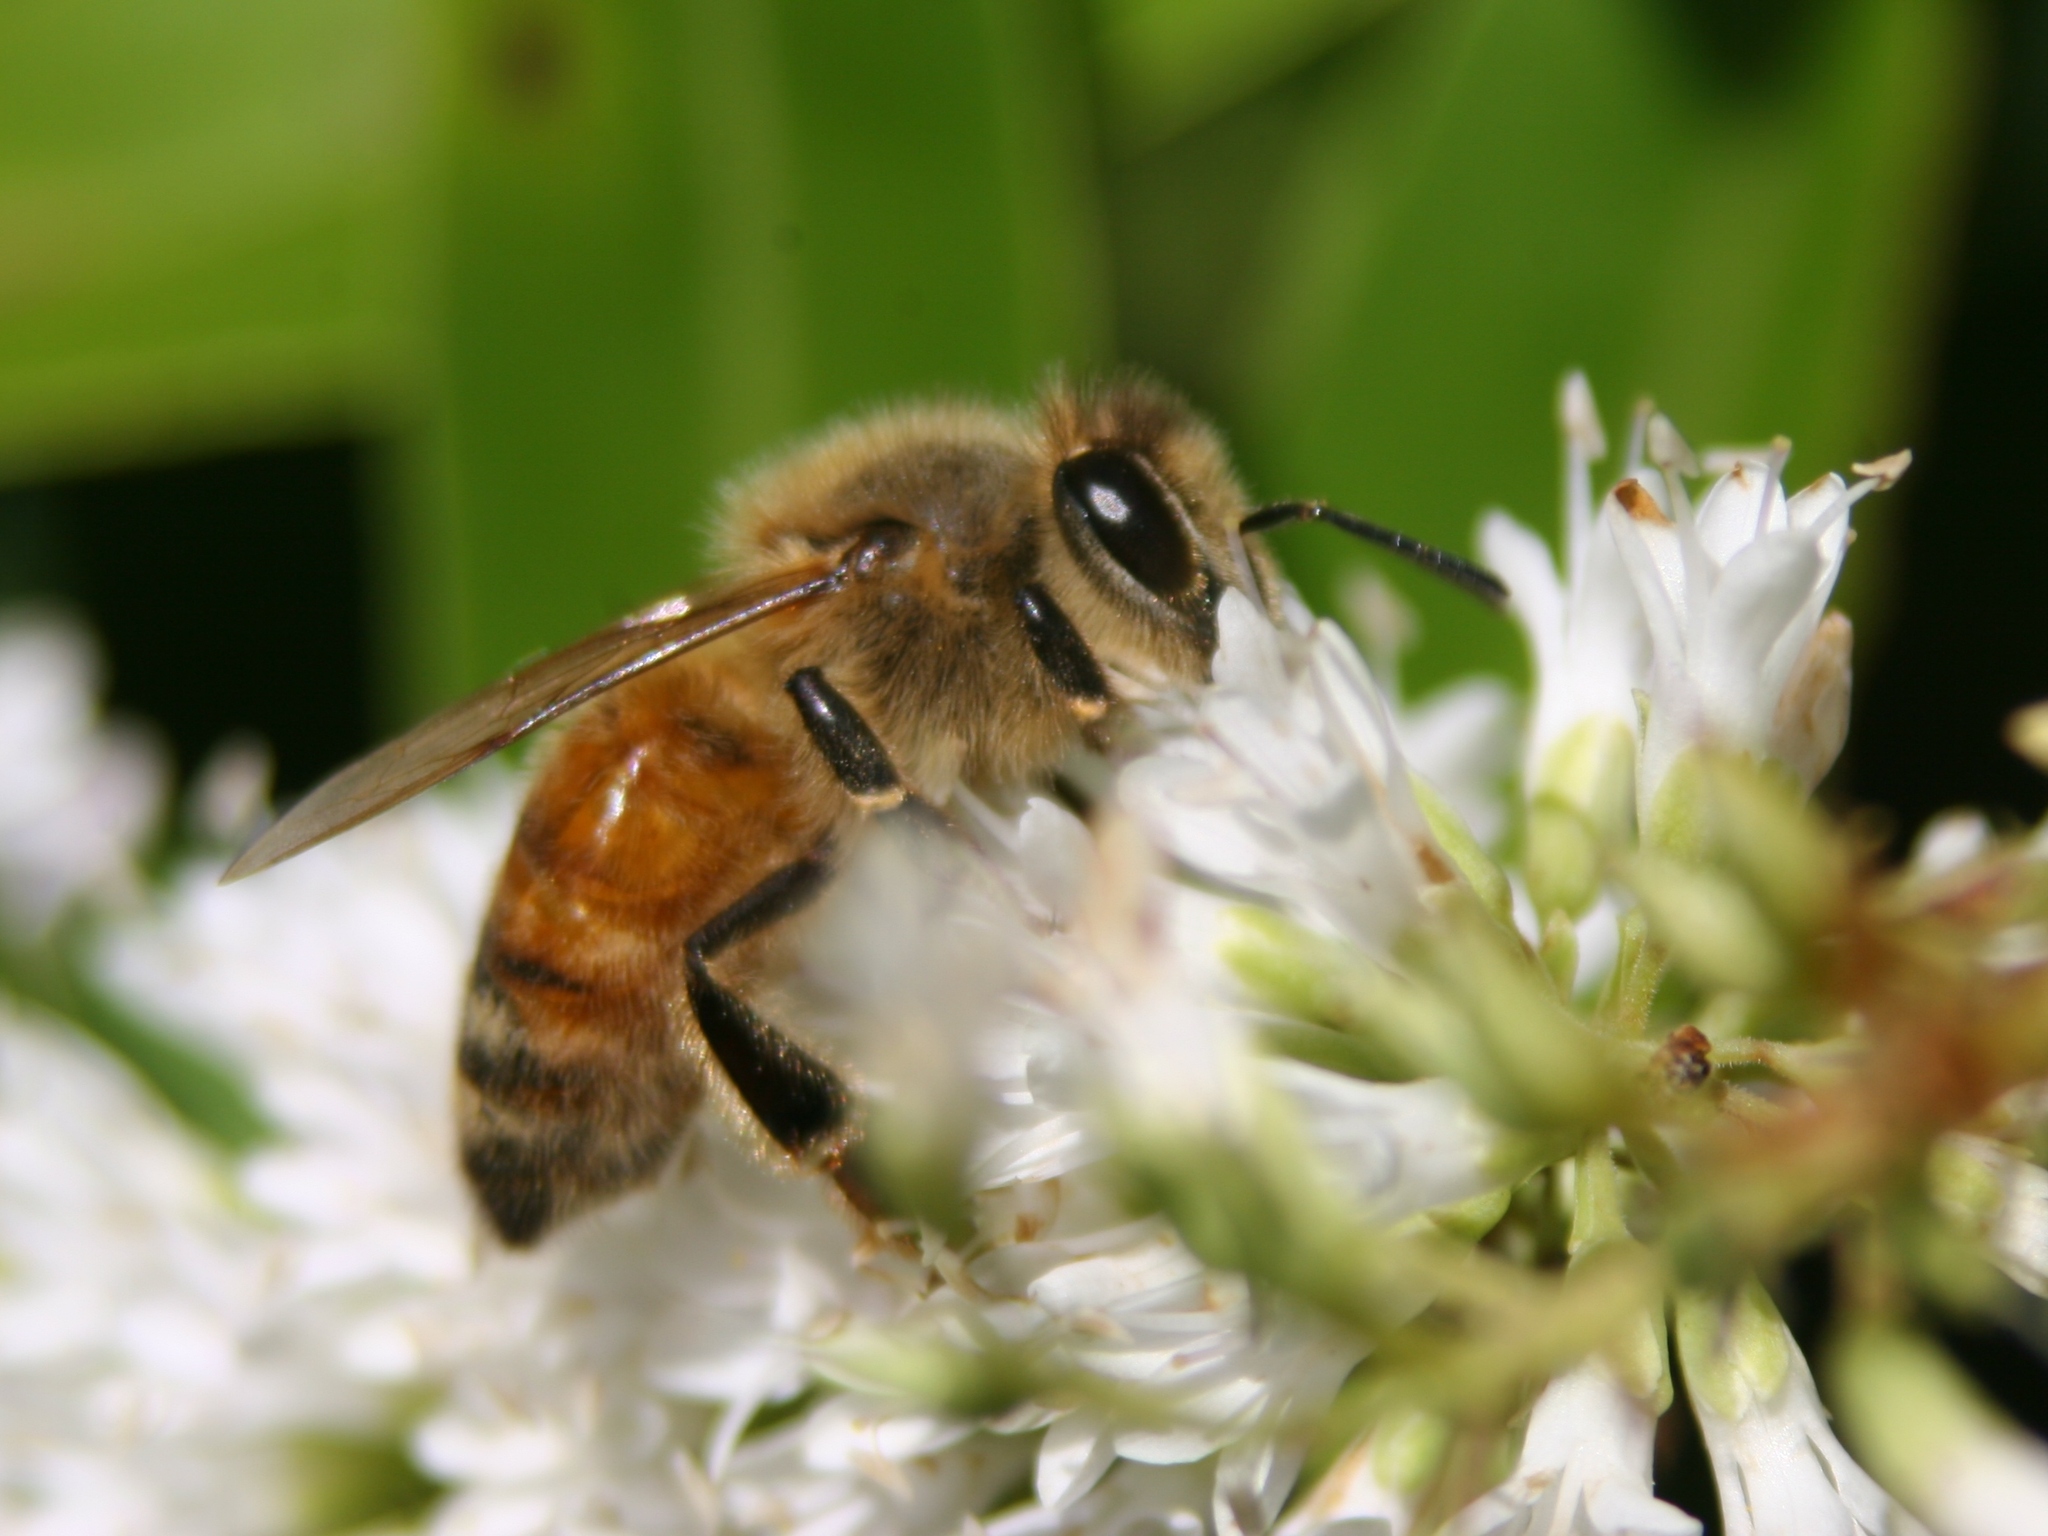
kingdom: Animalia
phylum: Arthropoda
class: Insecta
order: Hymenoptera
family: Apidae
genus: Apis
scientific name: Apis mellifera
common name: Honey bee
